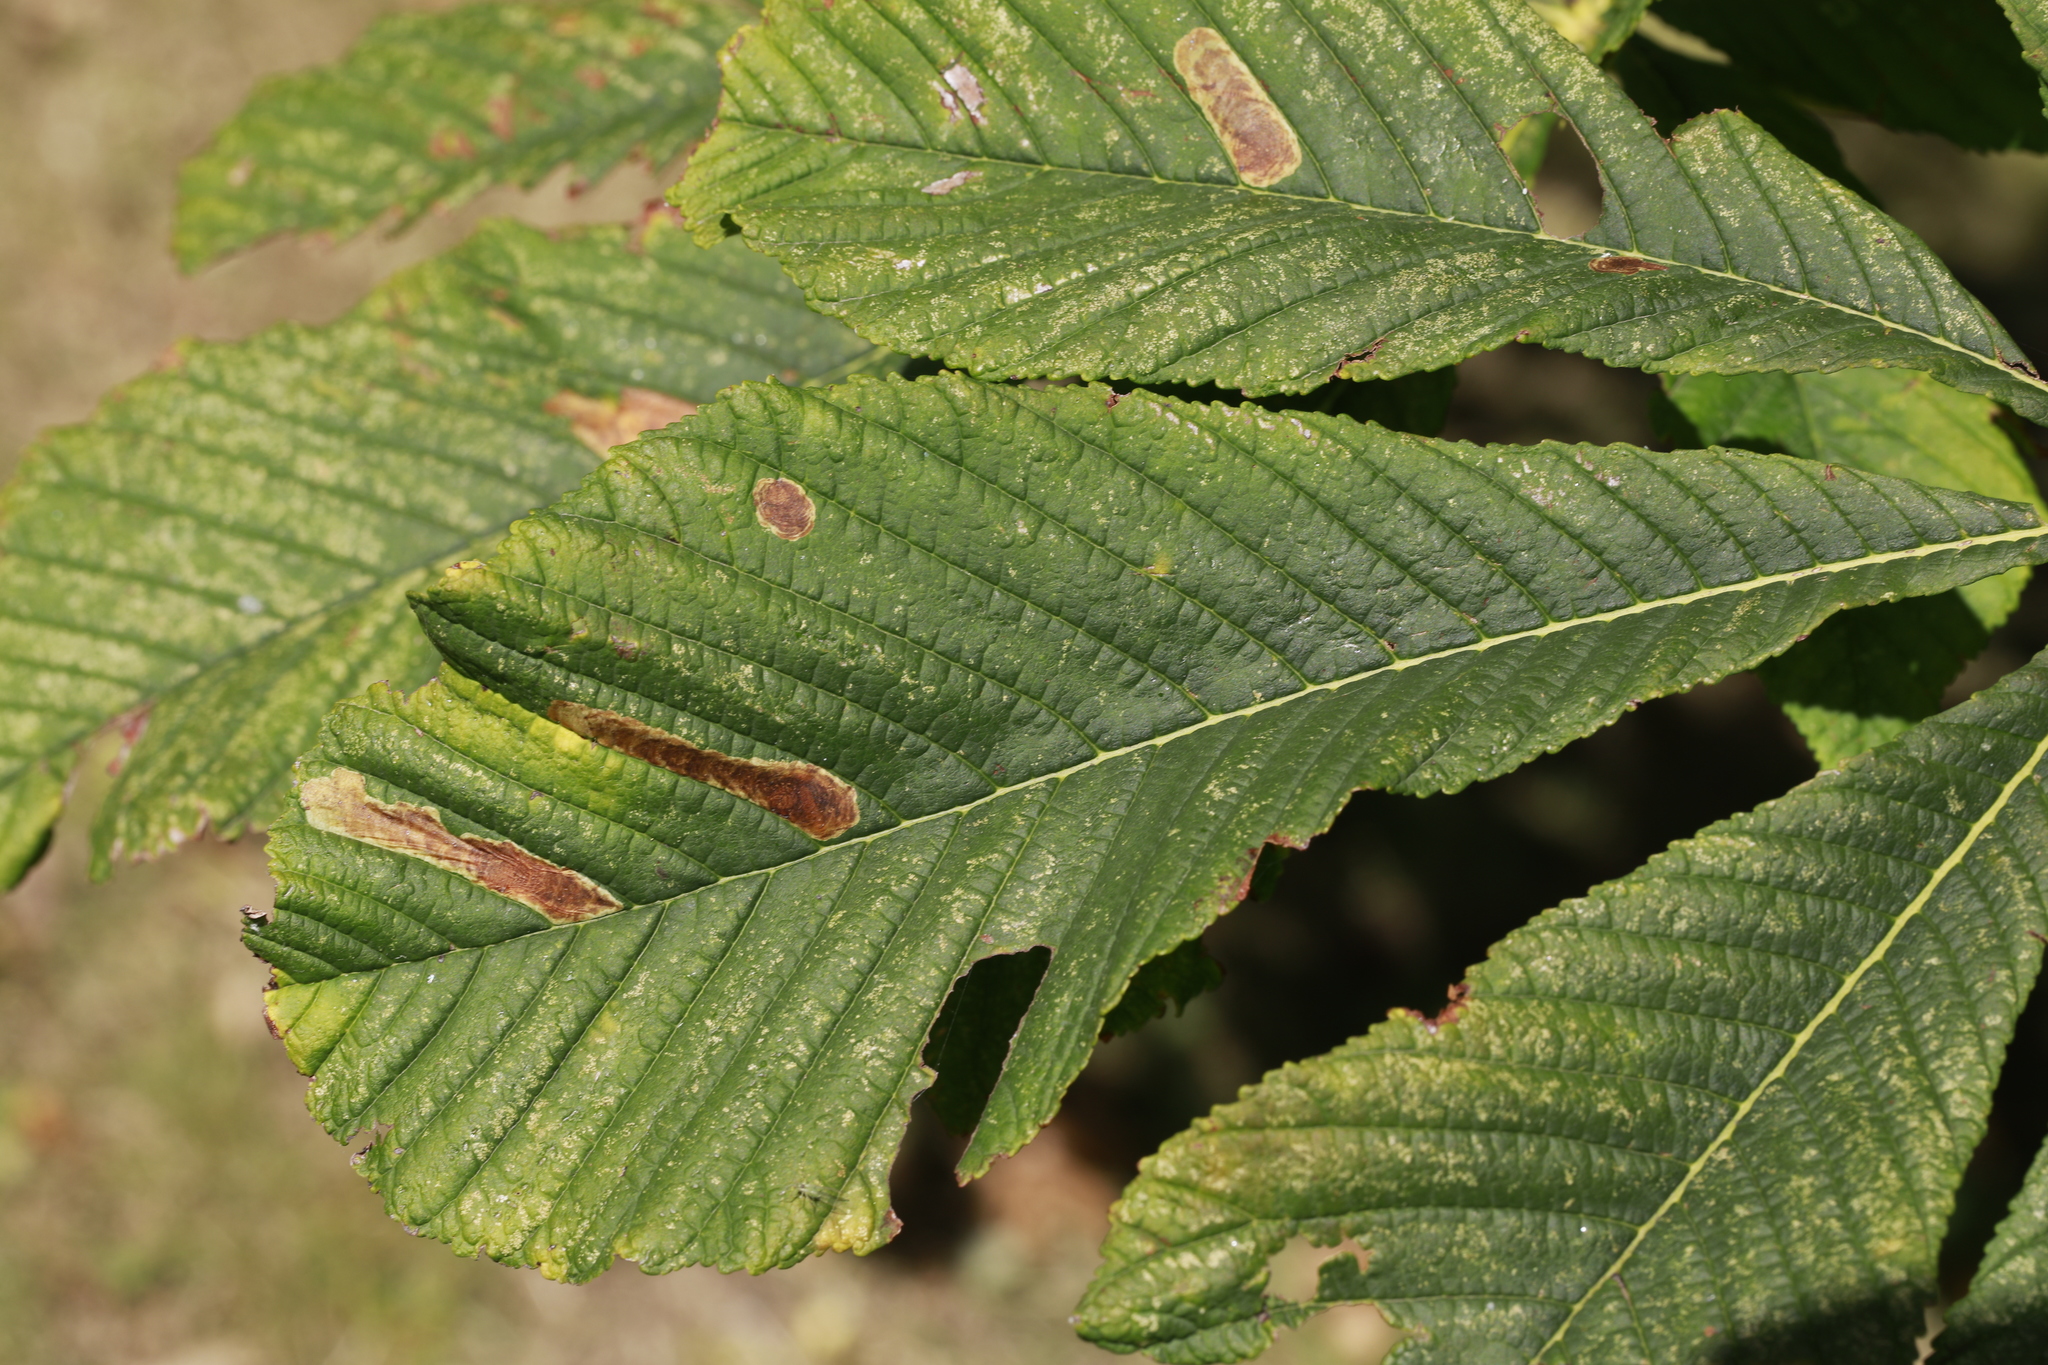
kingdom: Animalia
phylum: Arthropoda
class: Insecta
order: Lepidoptera
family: Gracillariidae
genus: Cameraria
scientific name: Cameraria ohridella
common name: Horse-chestnut leaf-miner
